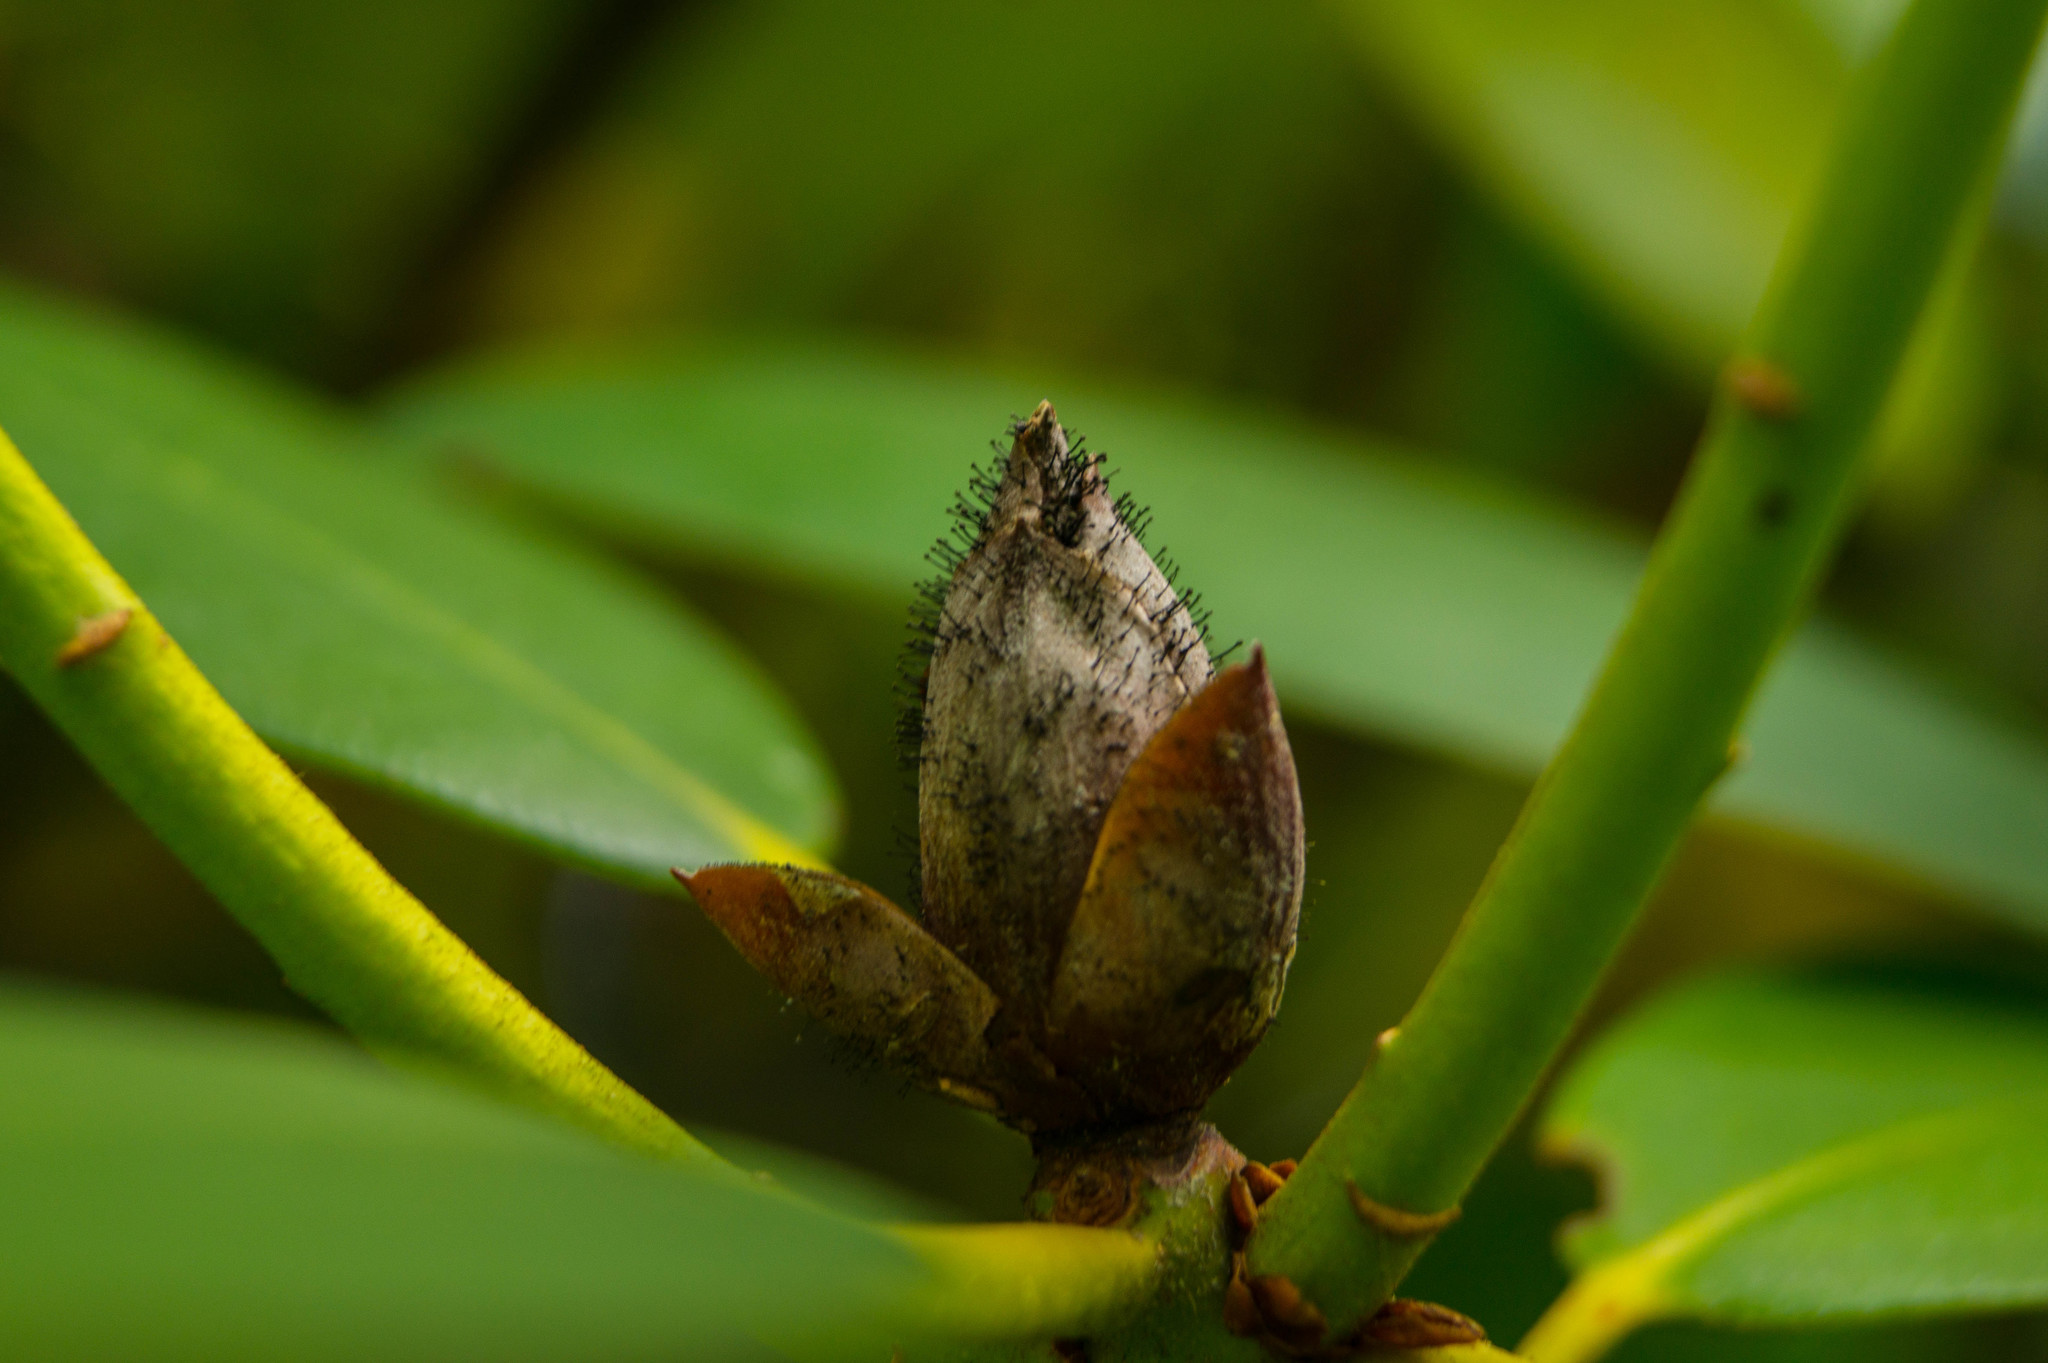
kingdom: Fungi
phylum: Ascomycota
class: Dothideomycetes
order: Pleosporales
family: Melanommataceae
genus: Seifertia
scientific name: Seifertia azaleae
